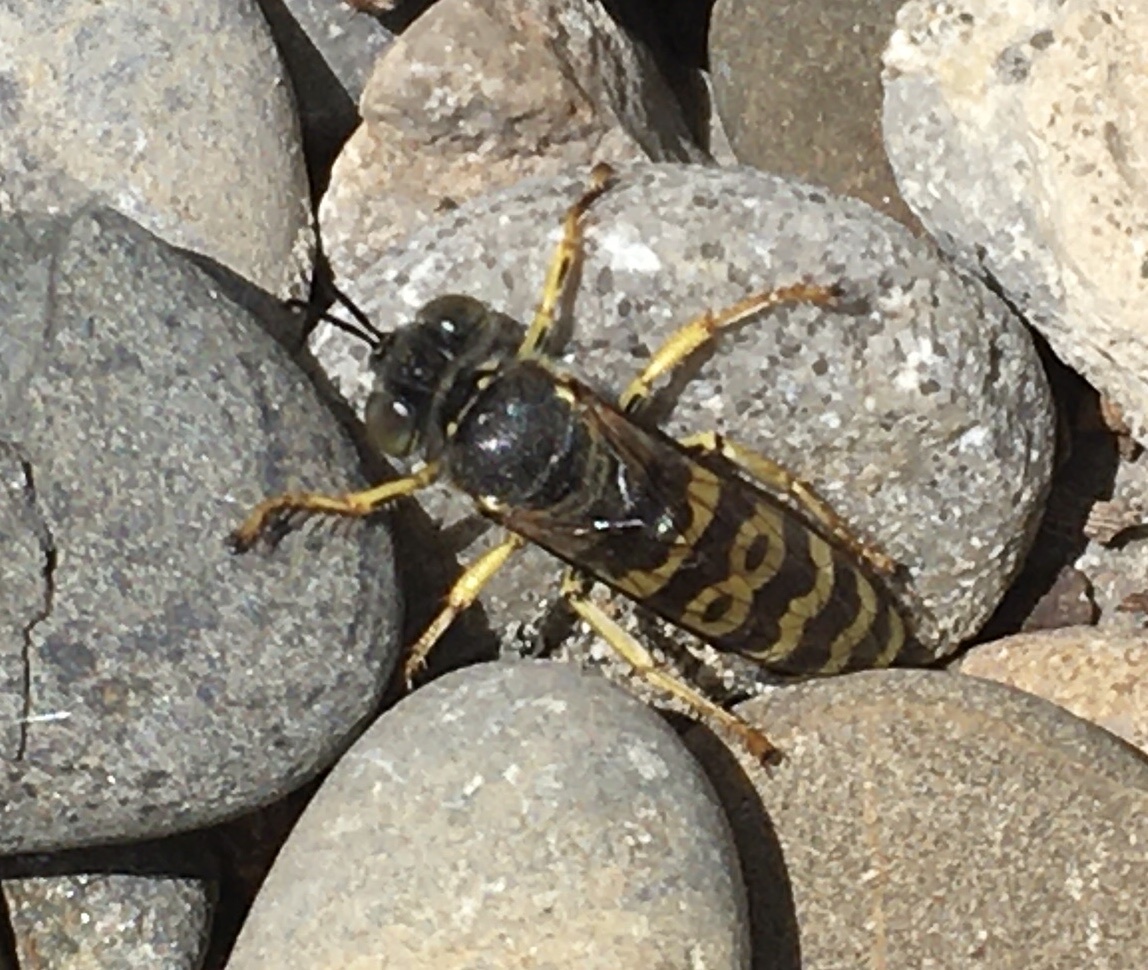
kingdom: Animalia
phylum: Arthropoda
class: Insecta
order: Hymenoptera
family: Crabronidae
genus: Bembix
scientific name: Bembix oculata
